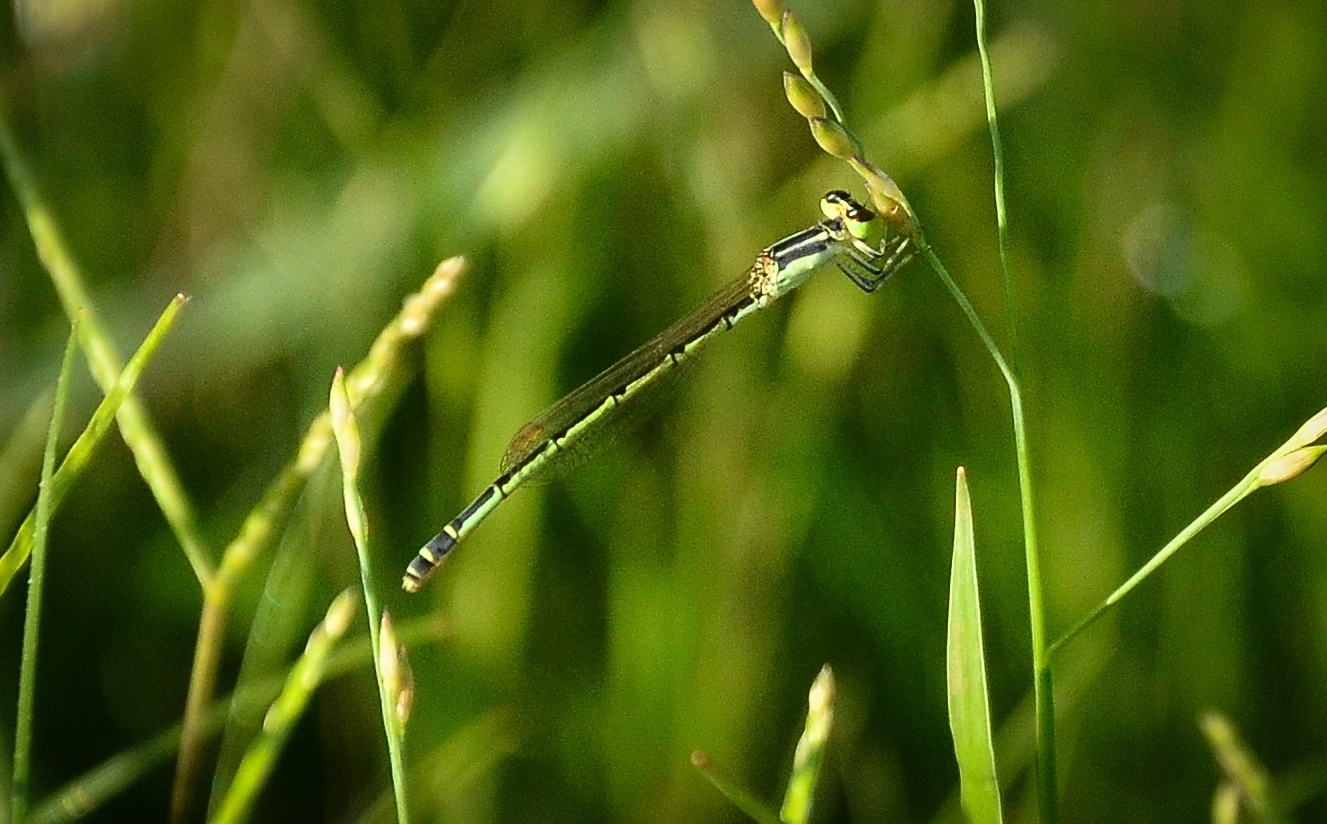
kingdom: Animalia
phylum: Arthropoda
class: Insecta
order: Odonata
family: Coenagrionidae
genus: Agriocnemis
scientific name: Agriocnemis keralensis
